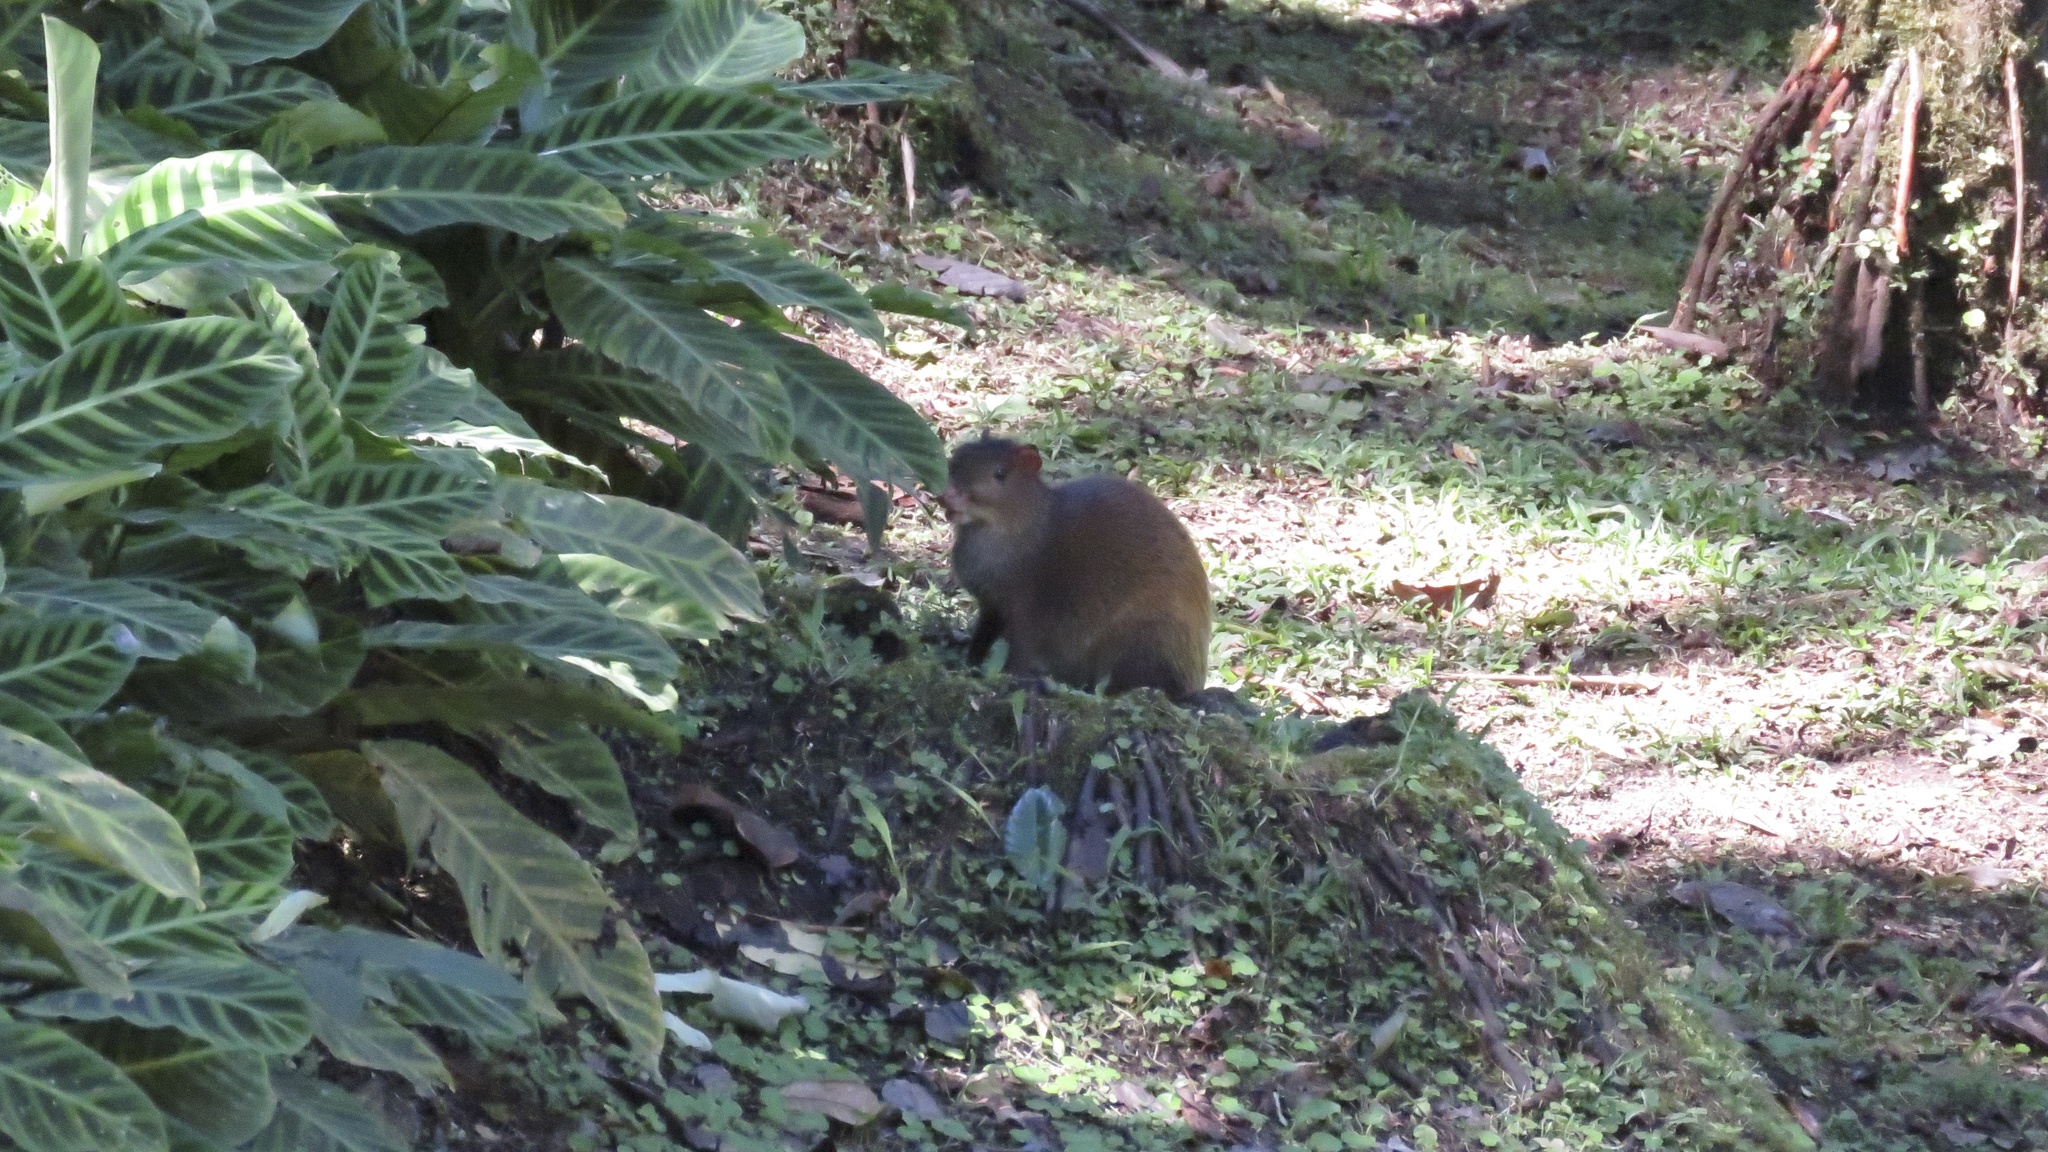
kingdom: Animalia
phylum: Chordata
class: Mammalia
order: Rodentia
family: Dasyproctidae
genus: Dasyprocta
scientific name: Dasyprocta punctata
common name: Central american agouti
